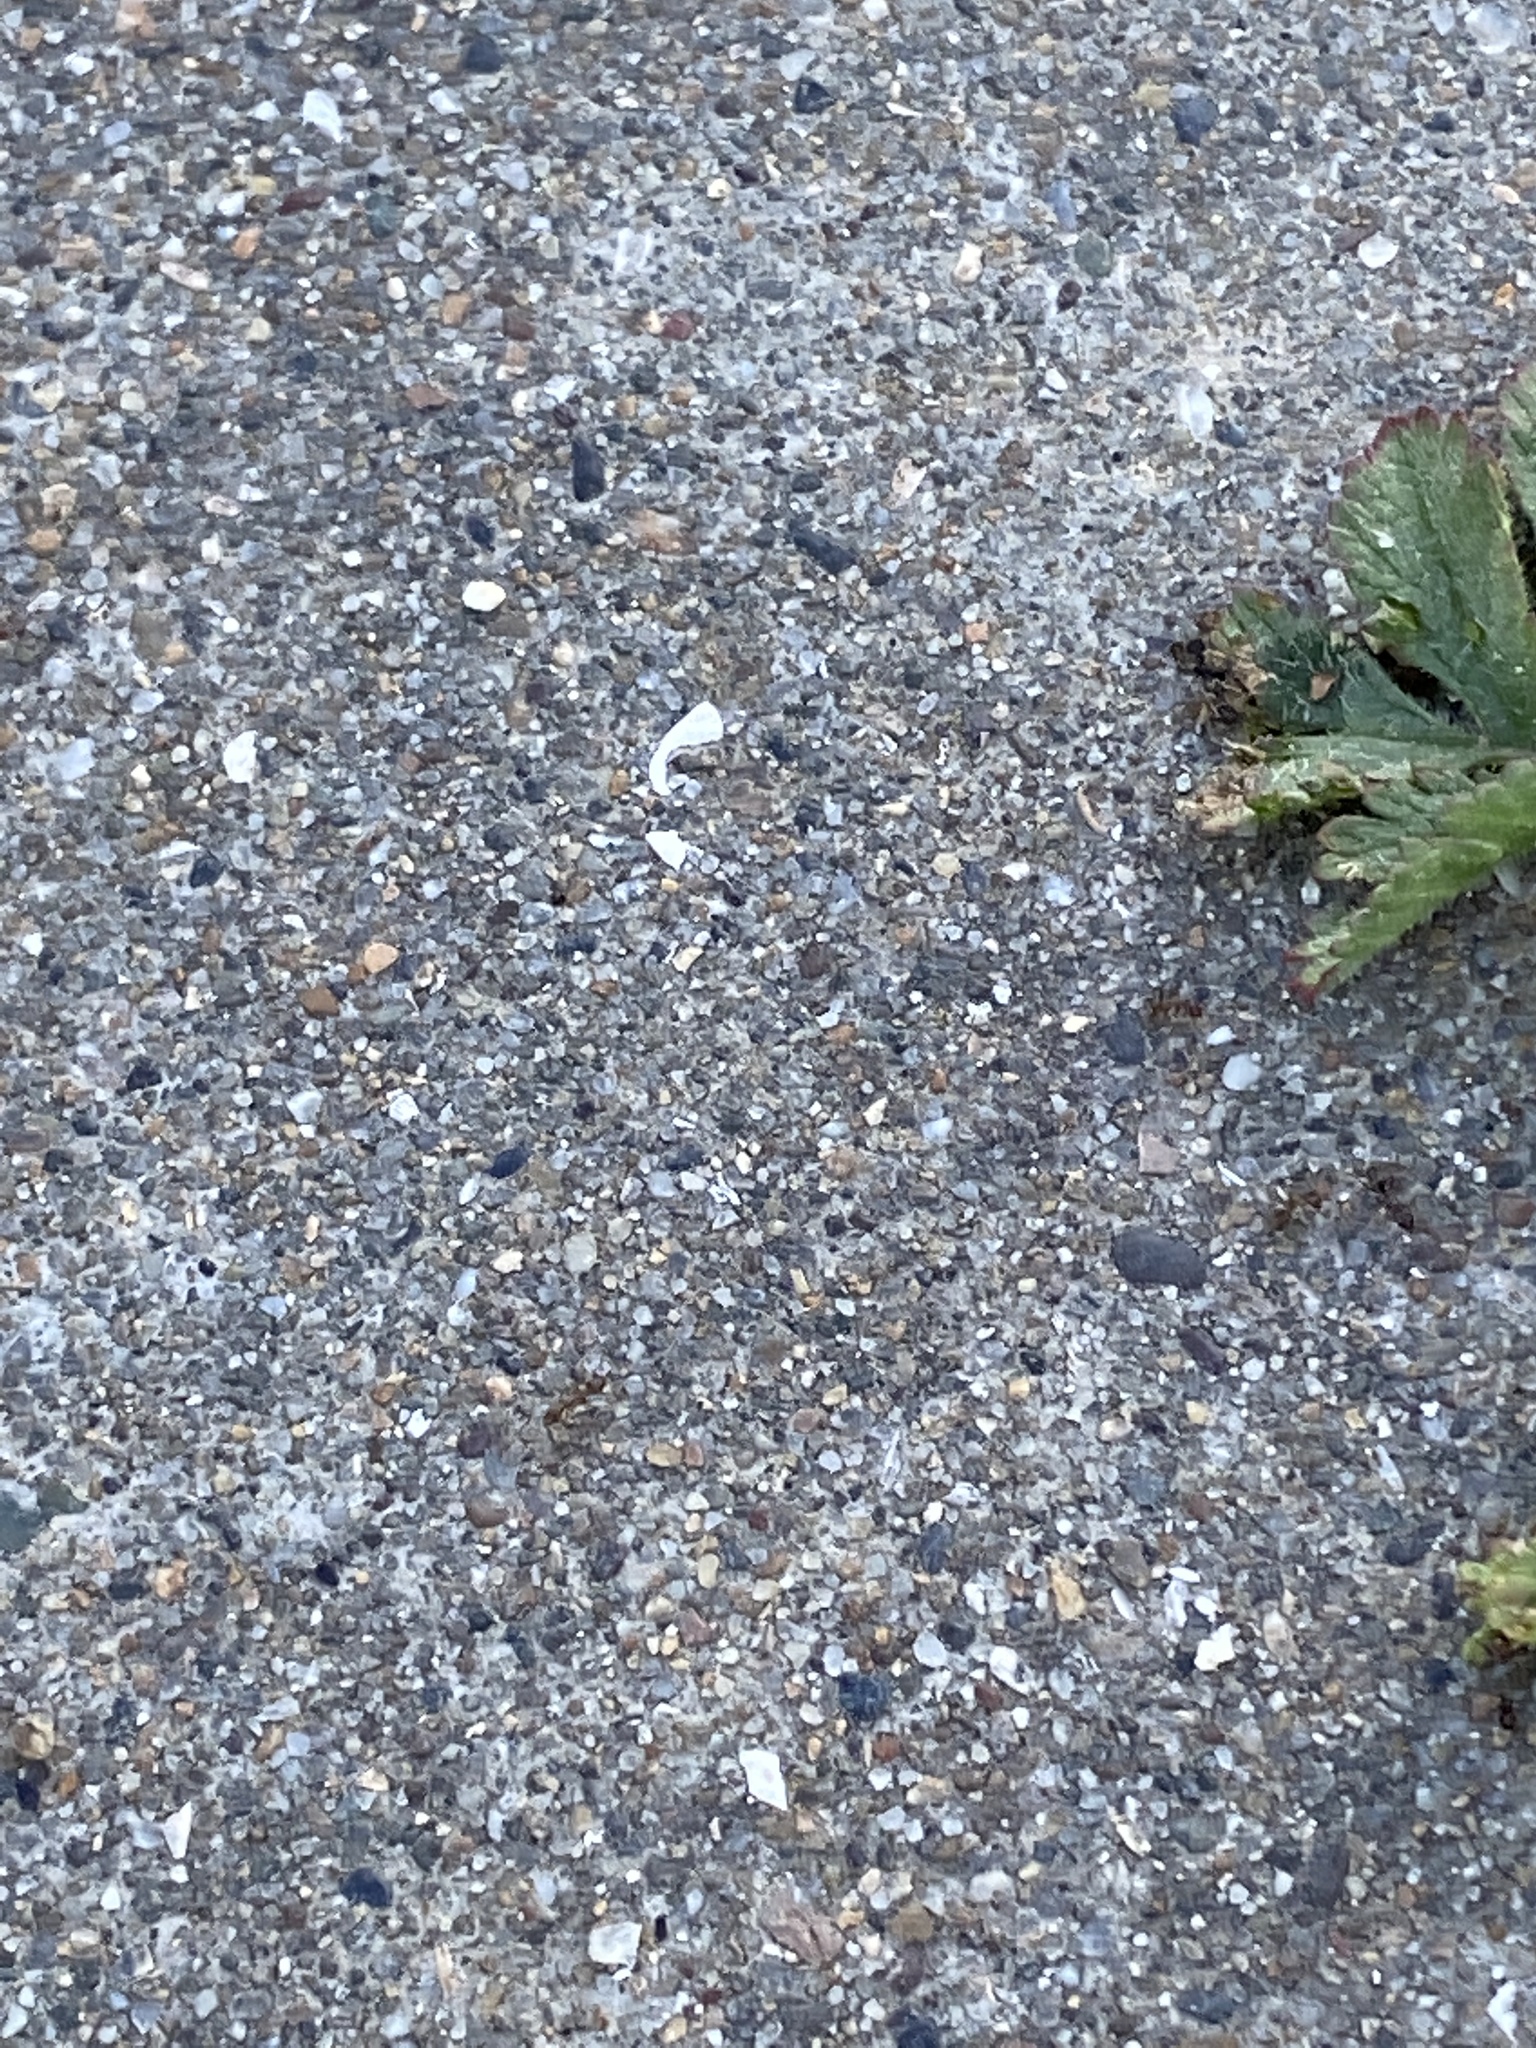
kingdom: Animalia
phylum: Arthropoda
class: Insecta
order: Hymenoptera
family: Formicidae
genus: Linepithema
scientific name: Linepithema humile
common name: Argentine ant
